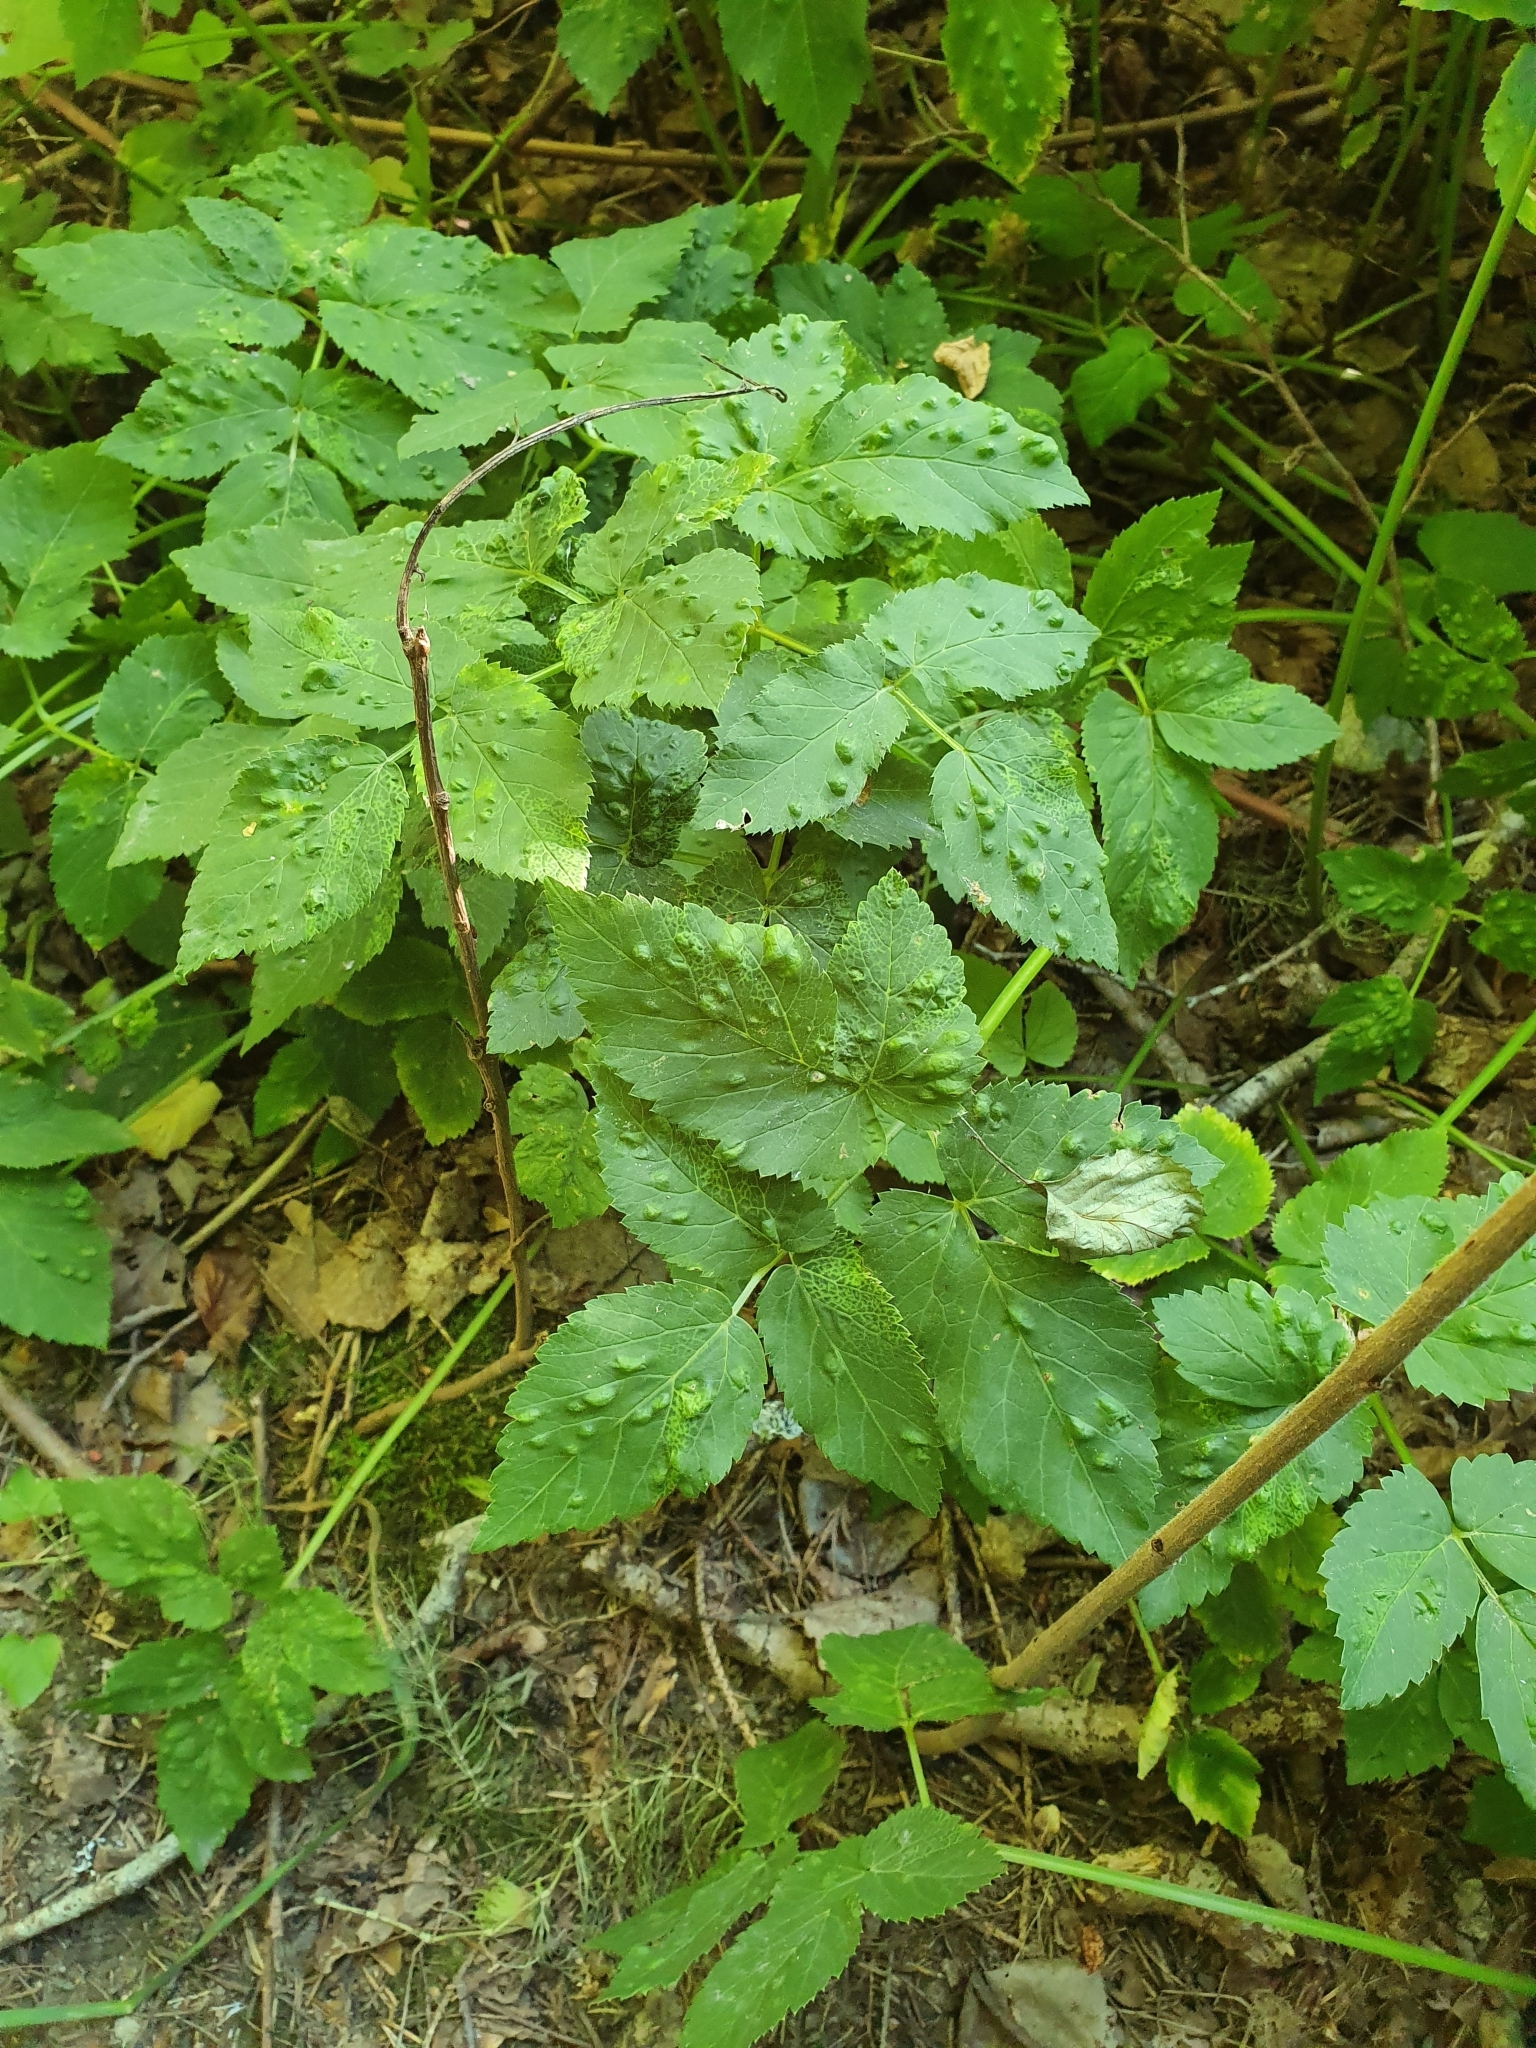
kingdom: Animalia
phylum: Arthropoda
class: Insecta
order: Hemiptera
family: Triozidae
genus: Trioza
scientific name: Trioza flavipennis
